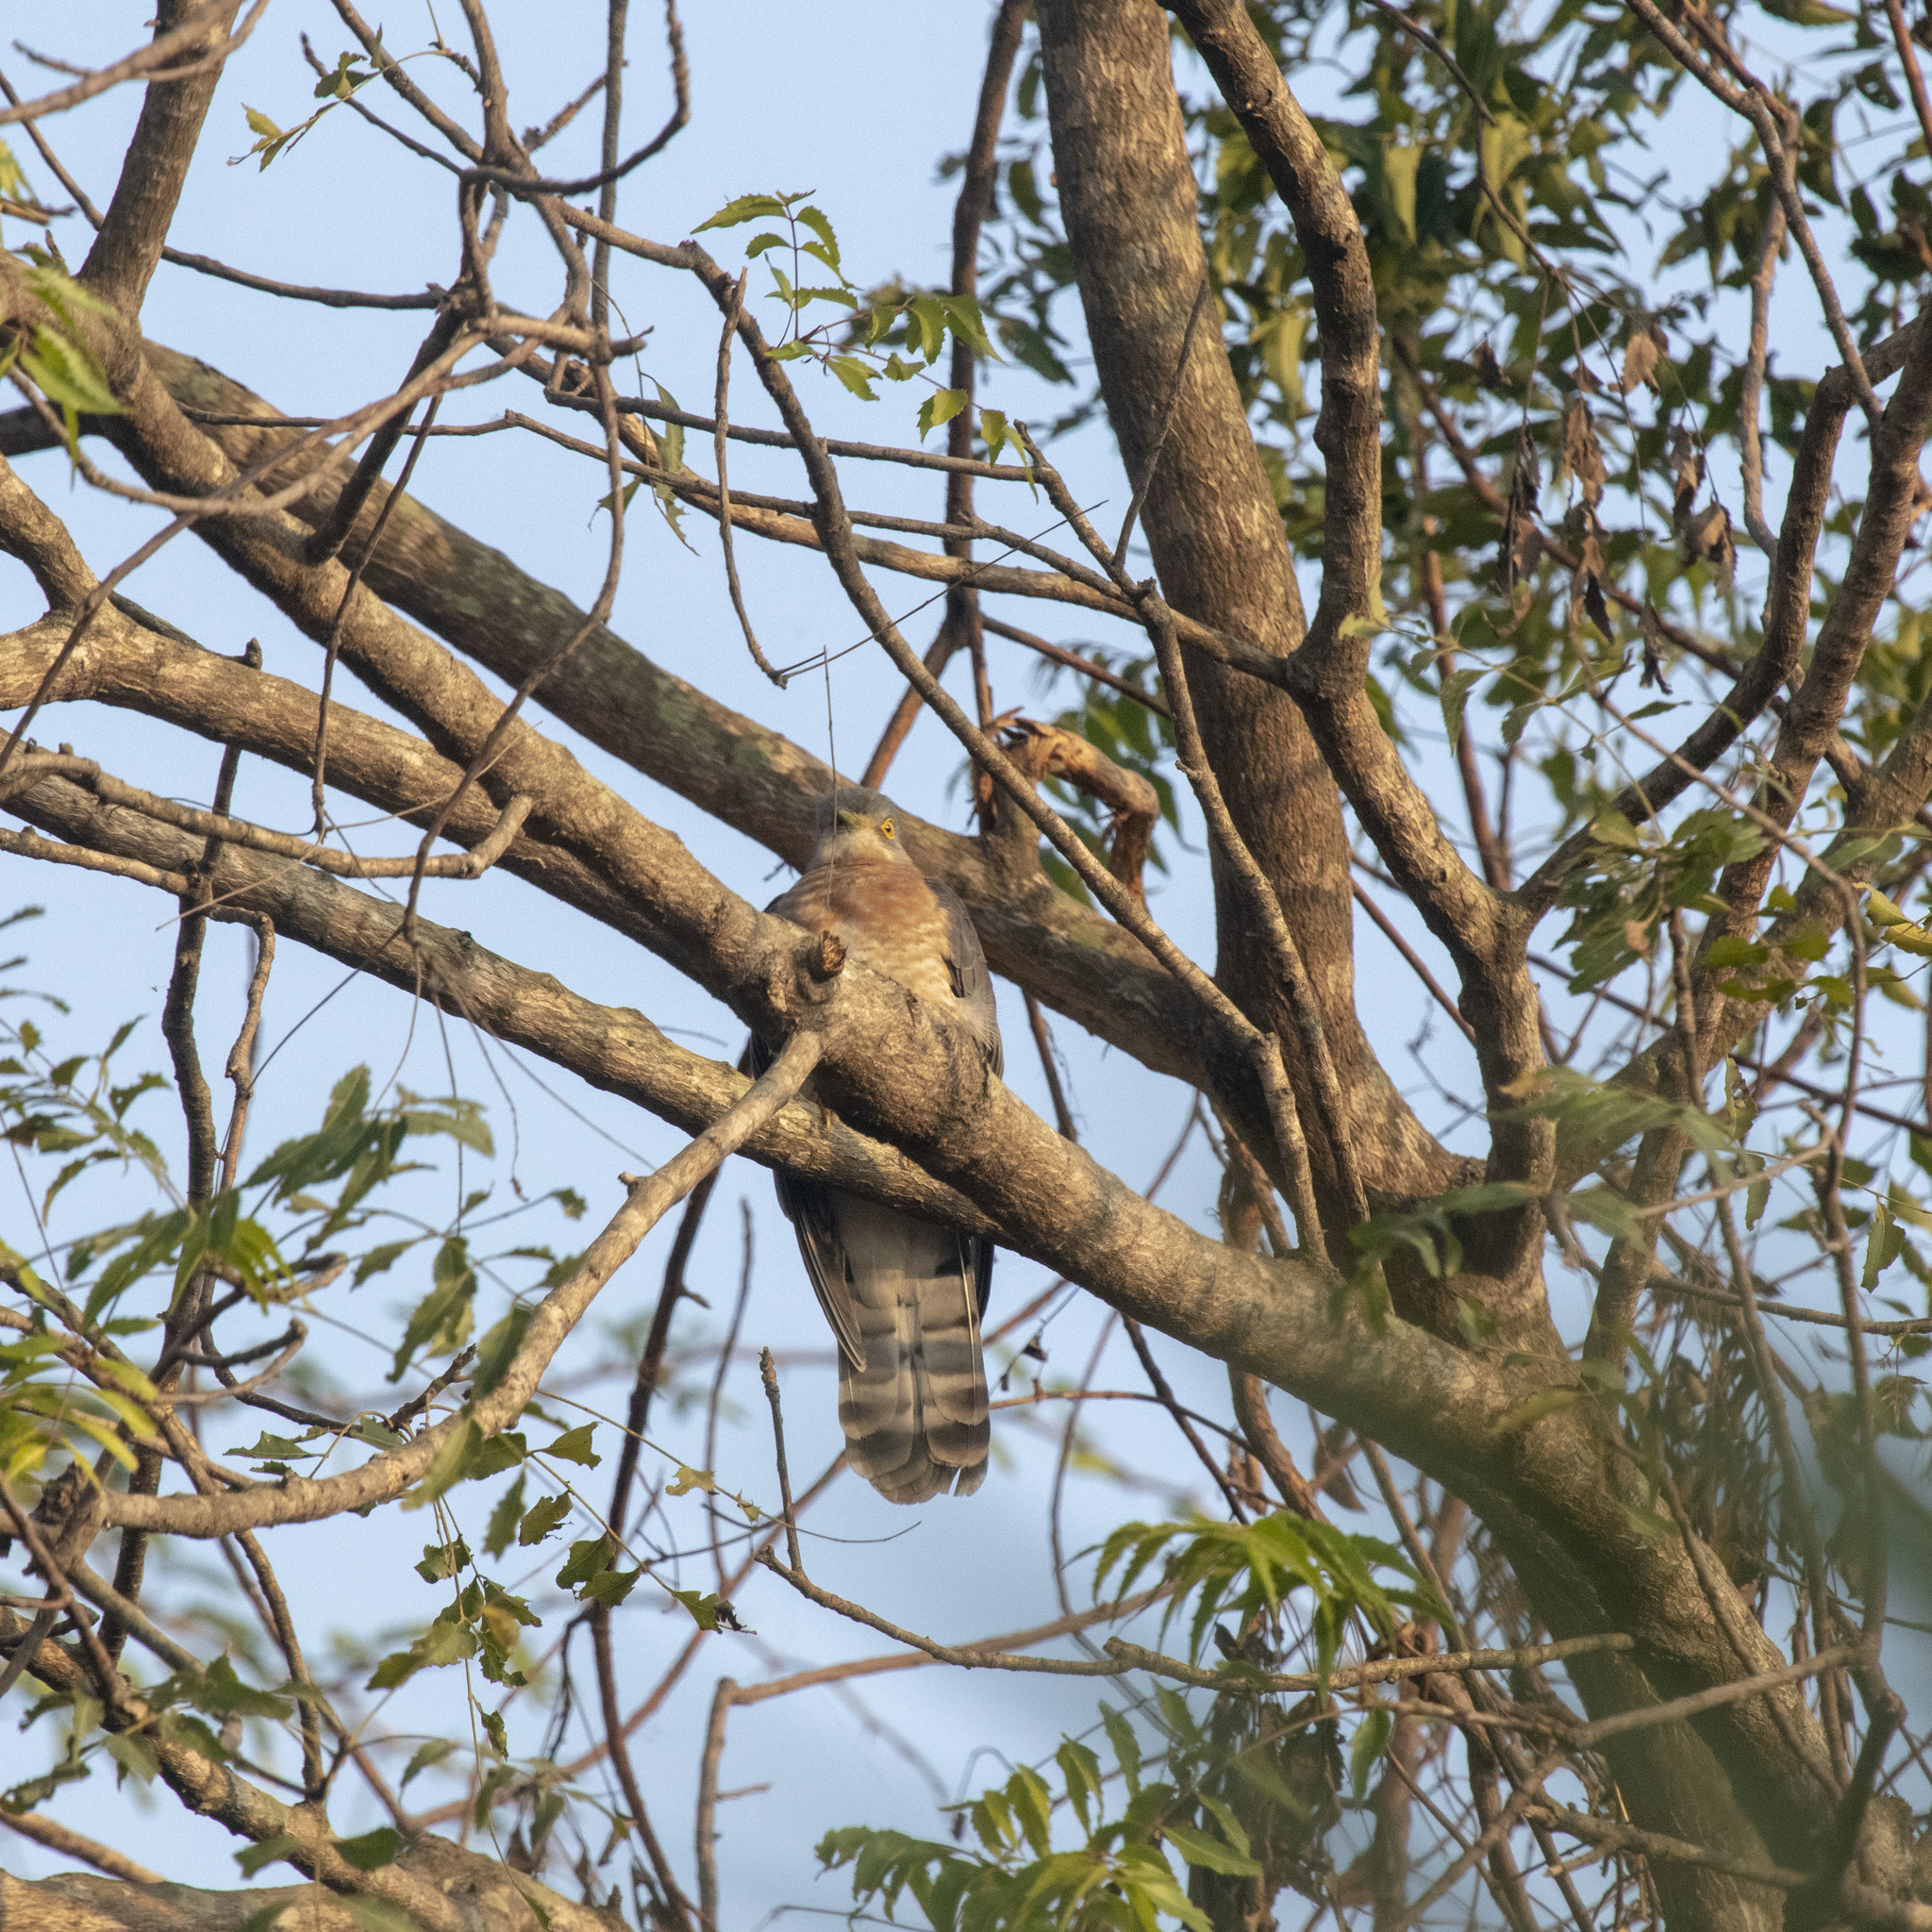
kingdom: Animalia
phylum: Chordata
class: Aves
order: Cuculiformes
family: Cuculidae
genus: Cuculus
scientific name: Cuculus varius
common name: Common hawk cuckoo
